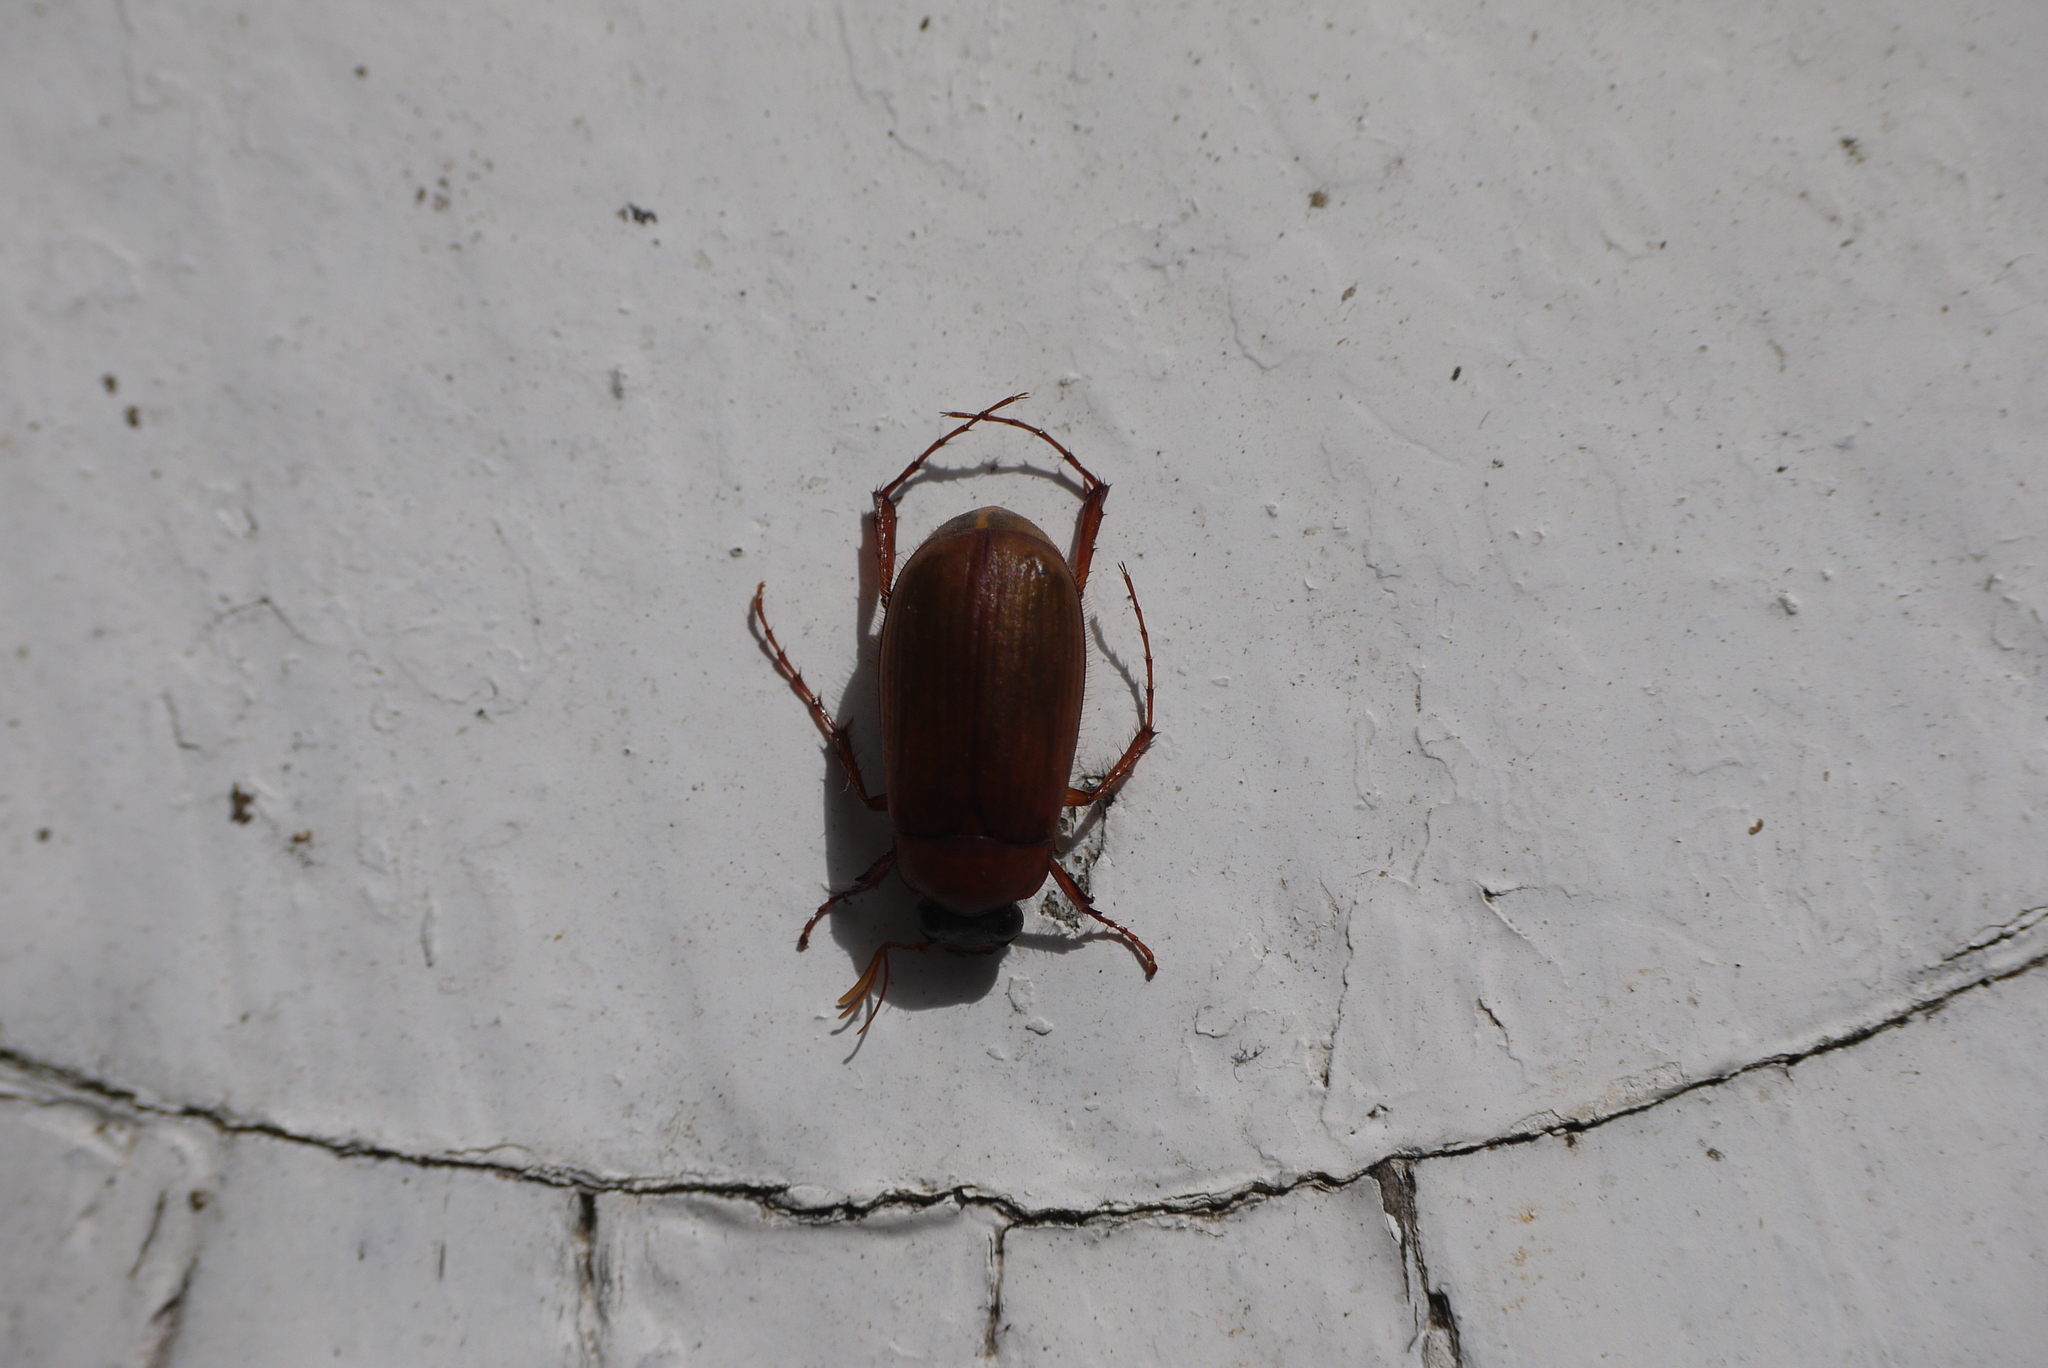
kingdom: Animalia
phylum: Arthropoda
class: Insecta
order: Coleoptera
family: Scarabaeidae
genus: Serica
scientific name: Serica brunnea
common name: Brown chafer
